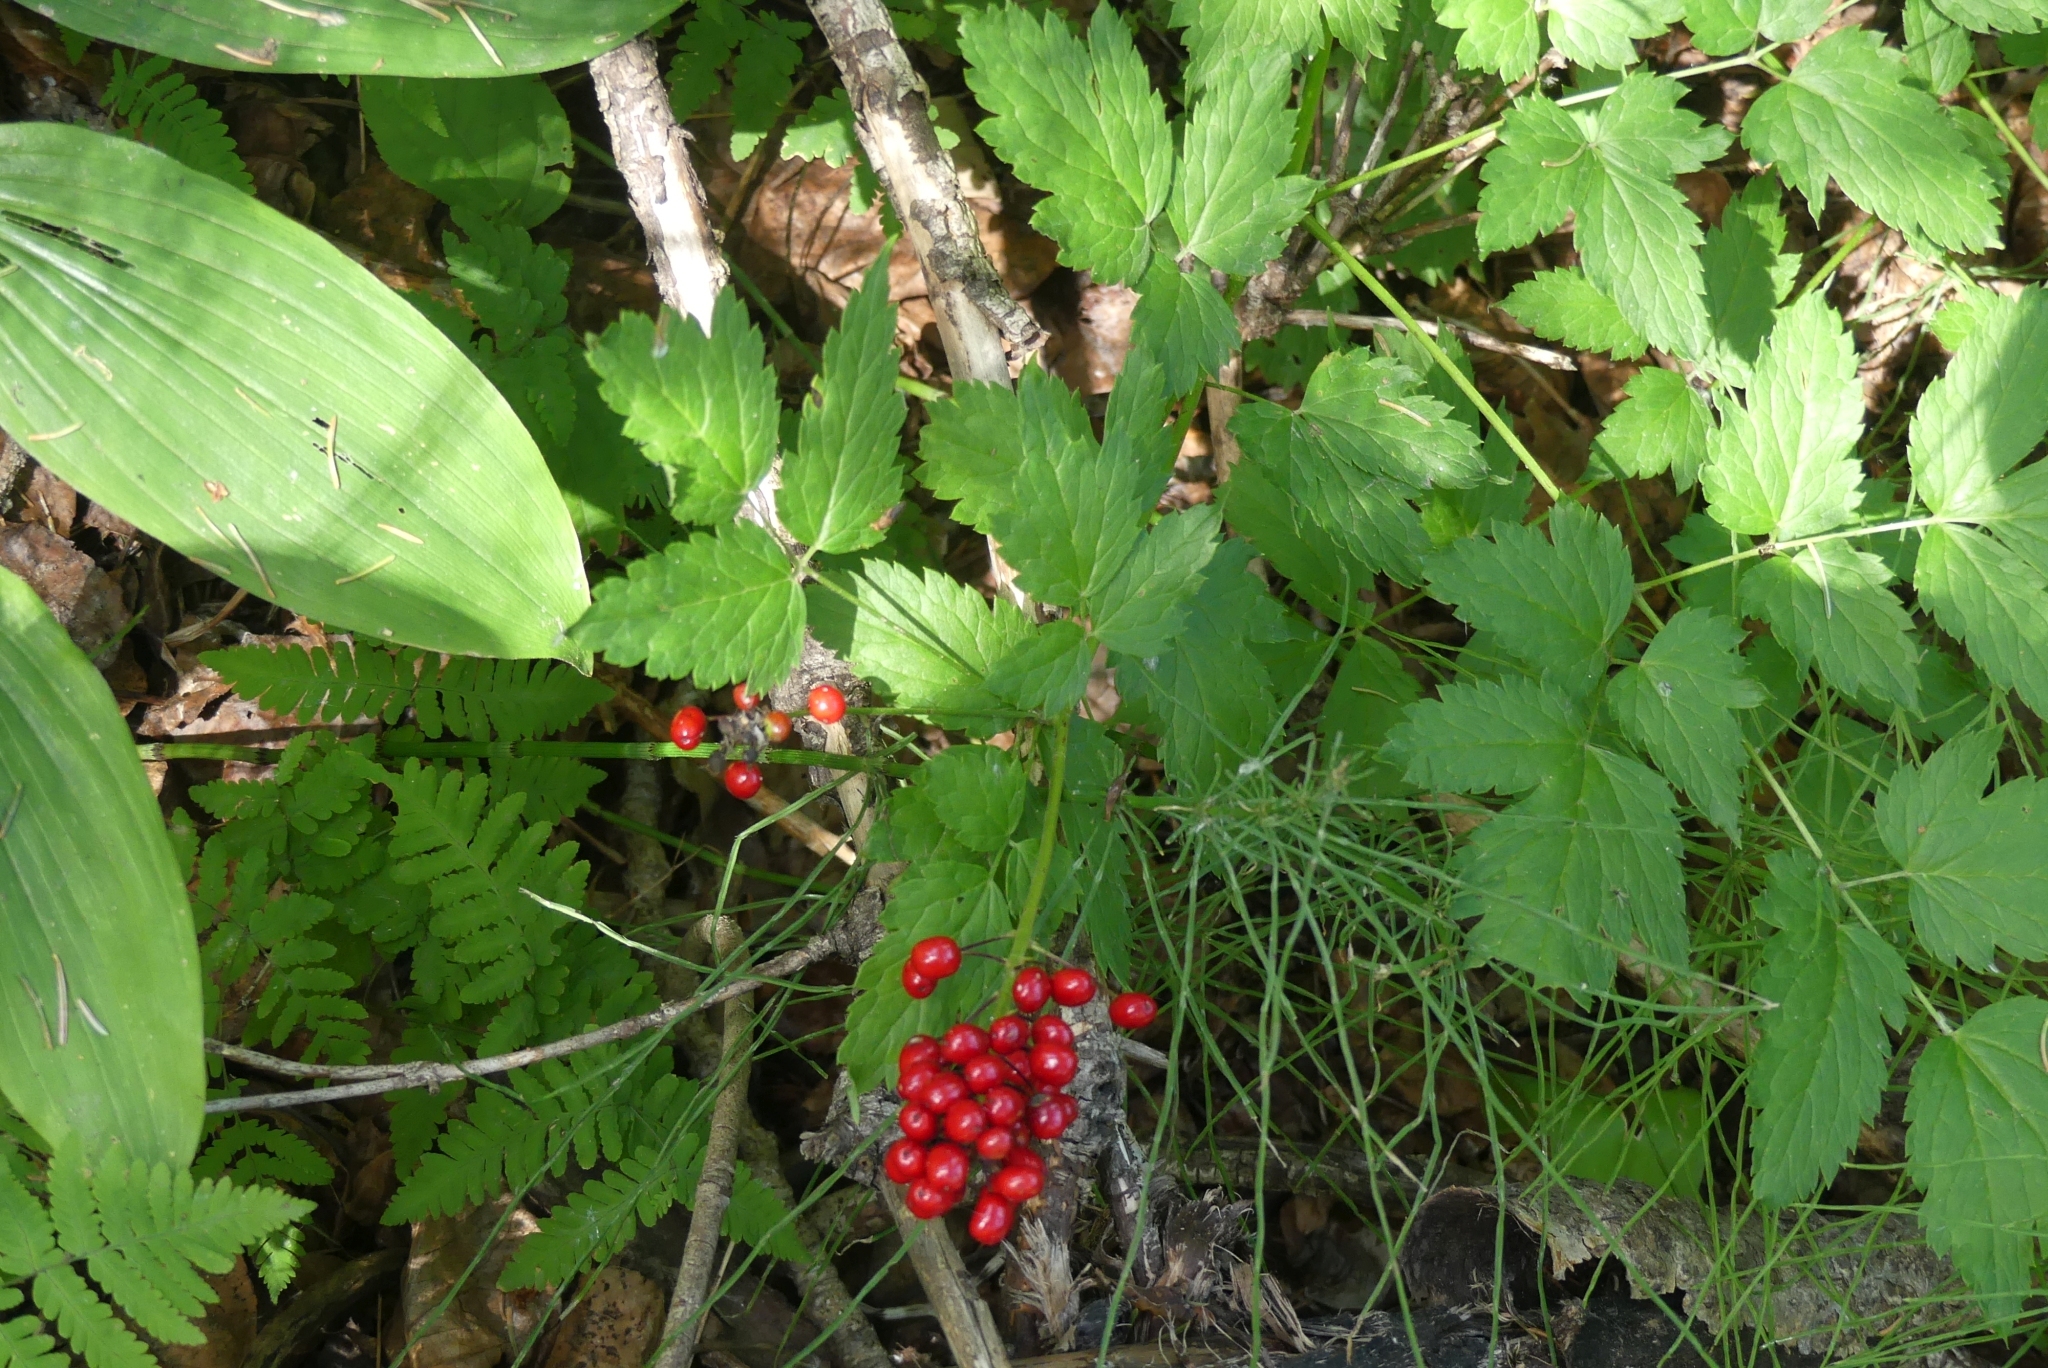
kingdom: Plantae
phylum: Tracheophyta
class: Magnoliopsida
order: Ranunculales
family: Ranunculaceae
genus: Actaea
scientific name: Actaea rubra
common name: Red baneberry
